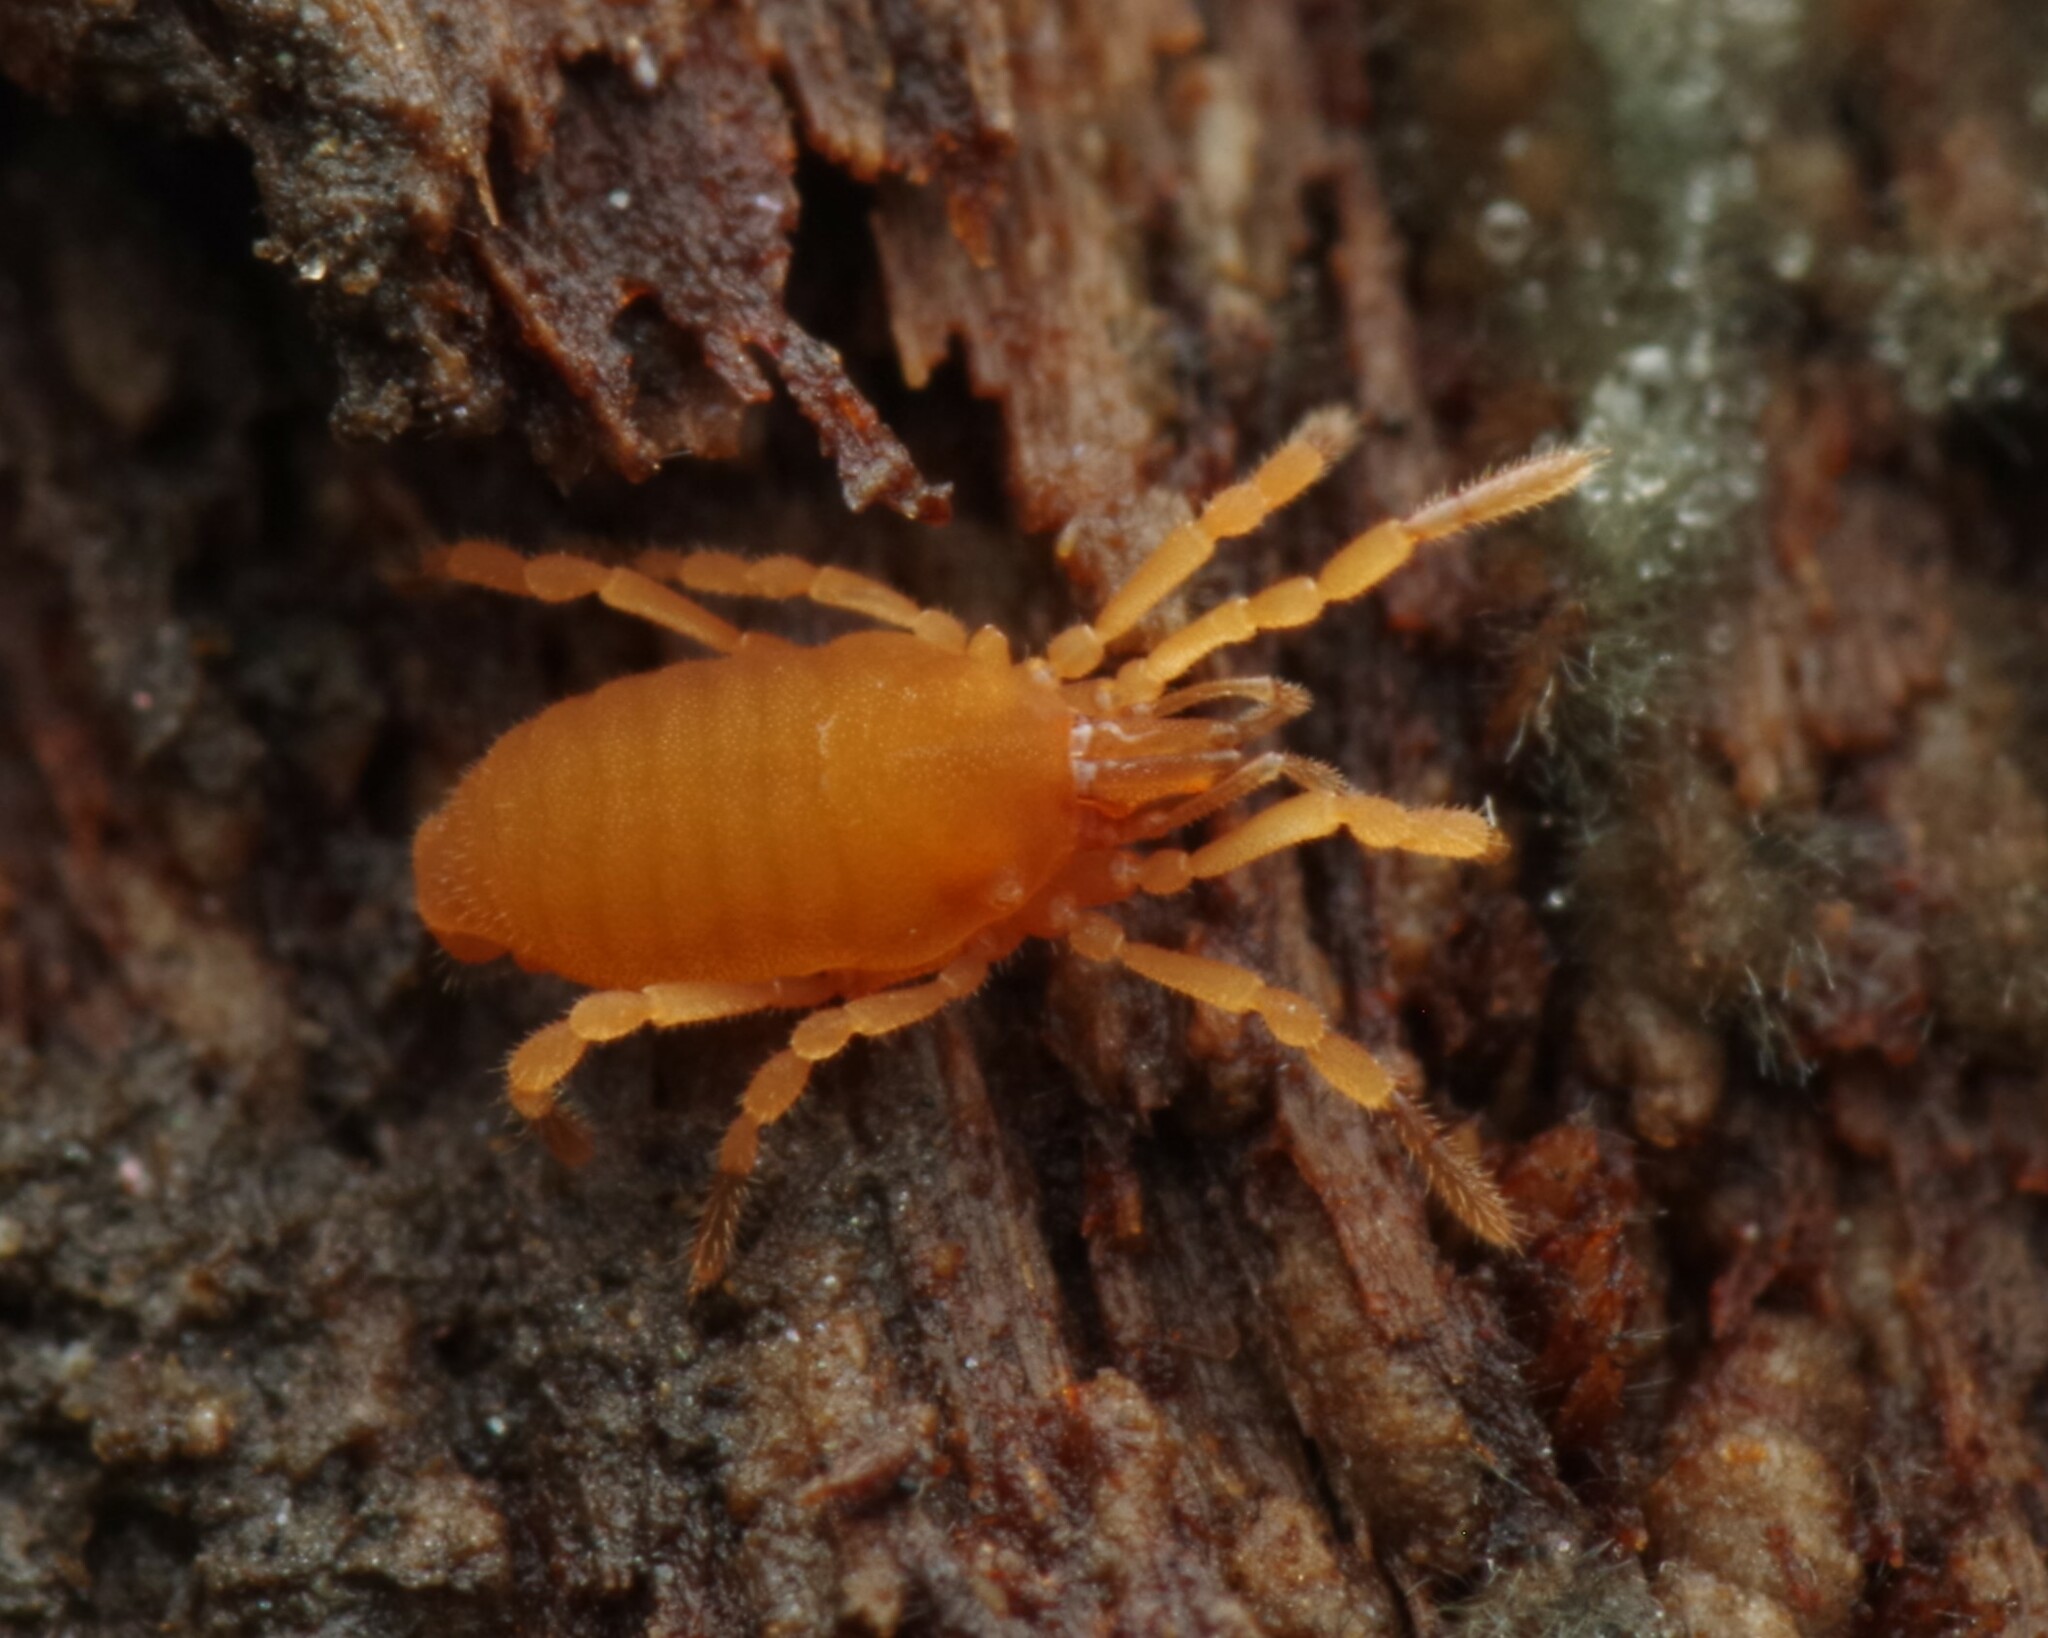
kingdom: Animalia
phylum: Arthropoda
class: Arachnida
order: Opiliones
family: Sironidae
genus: Siro
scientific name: Siro rubens
